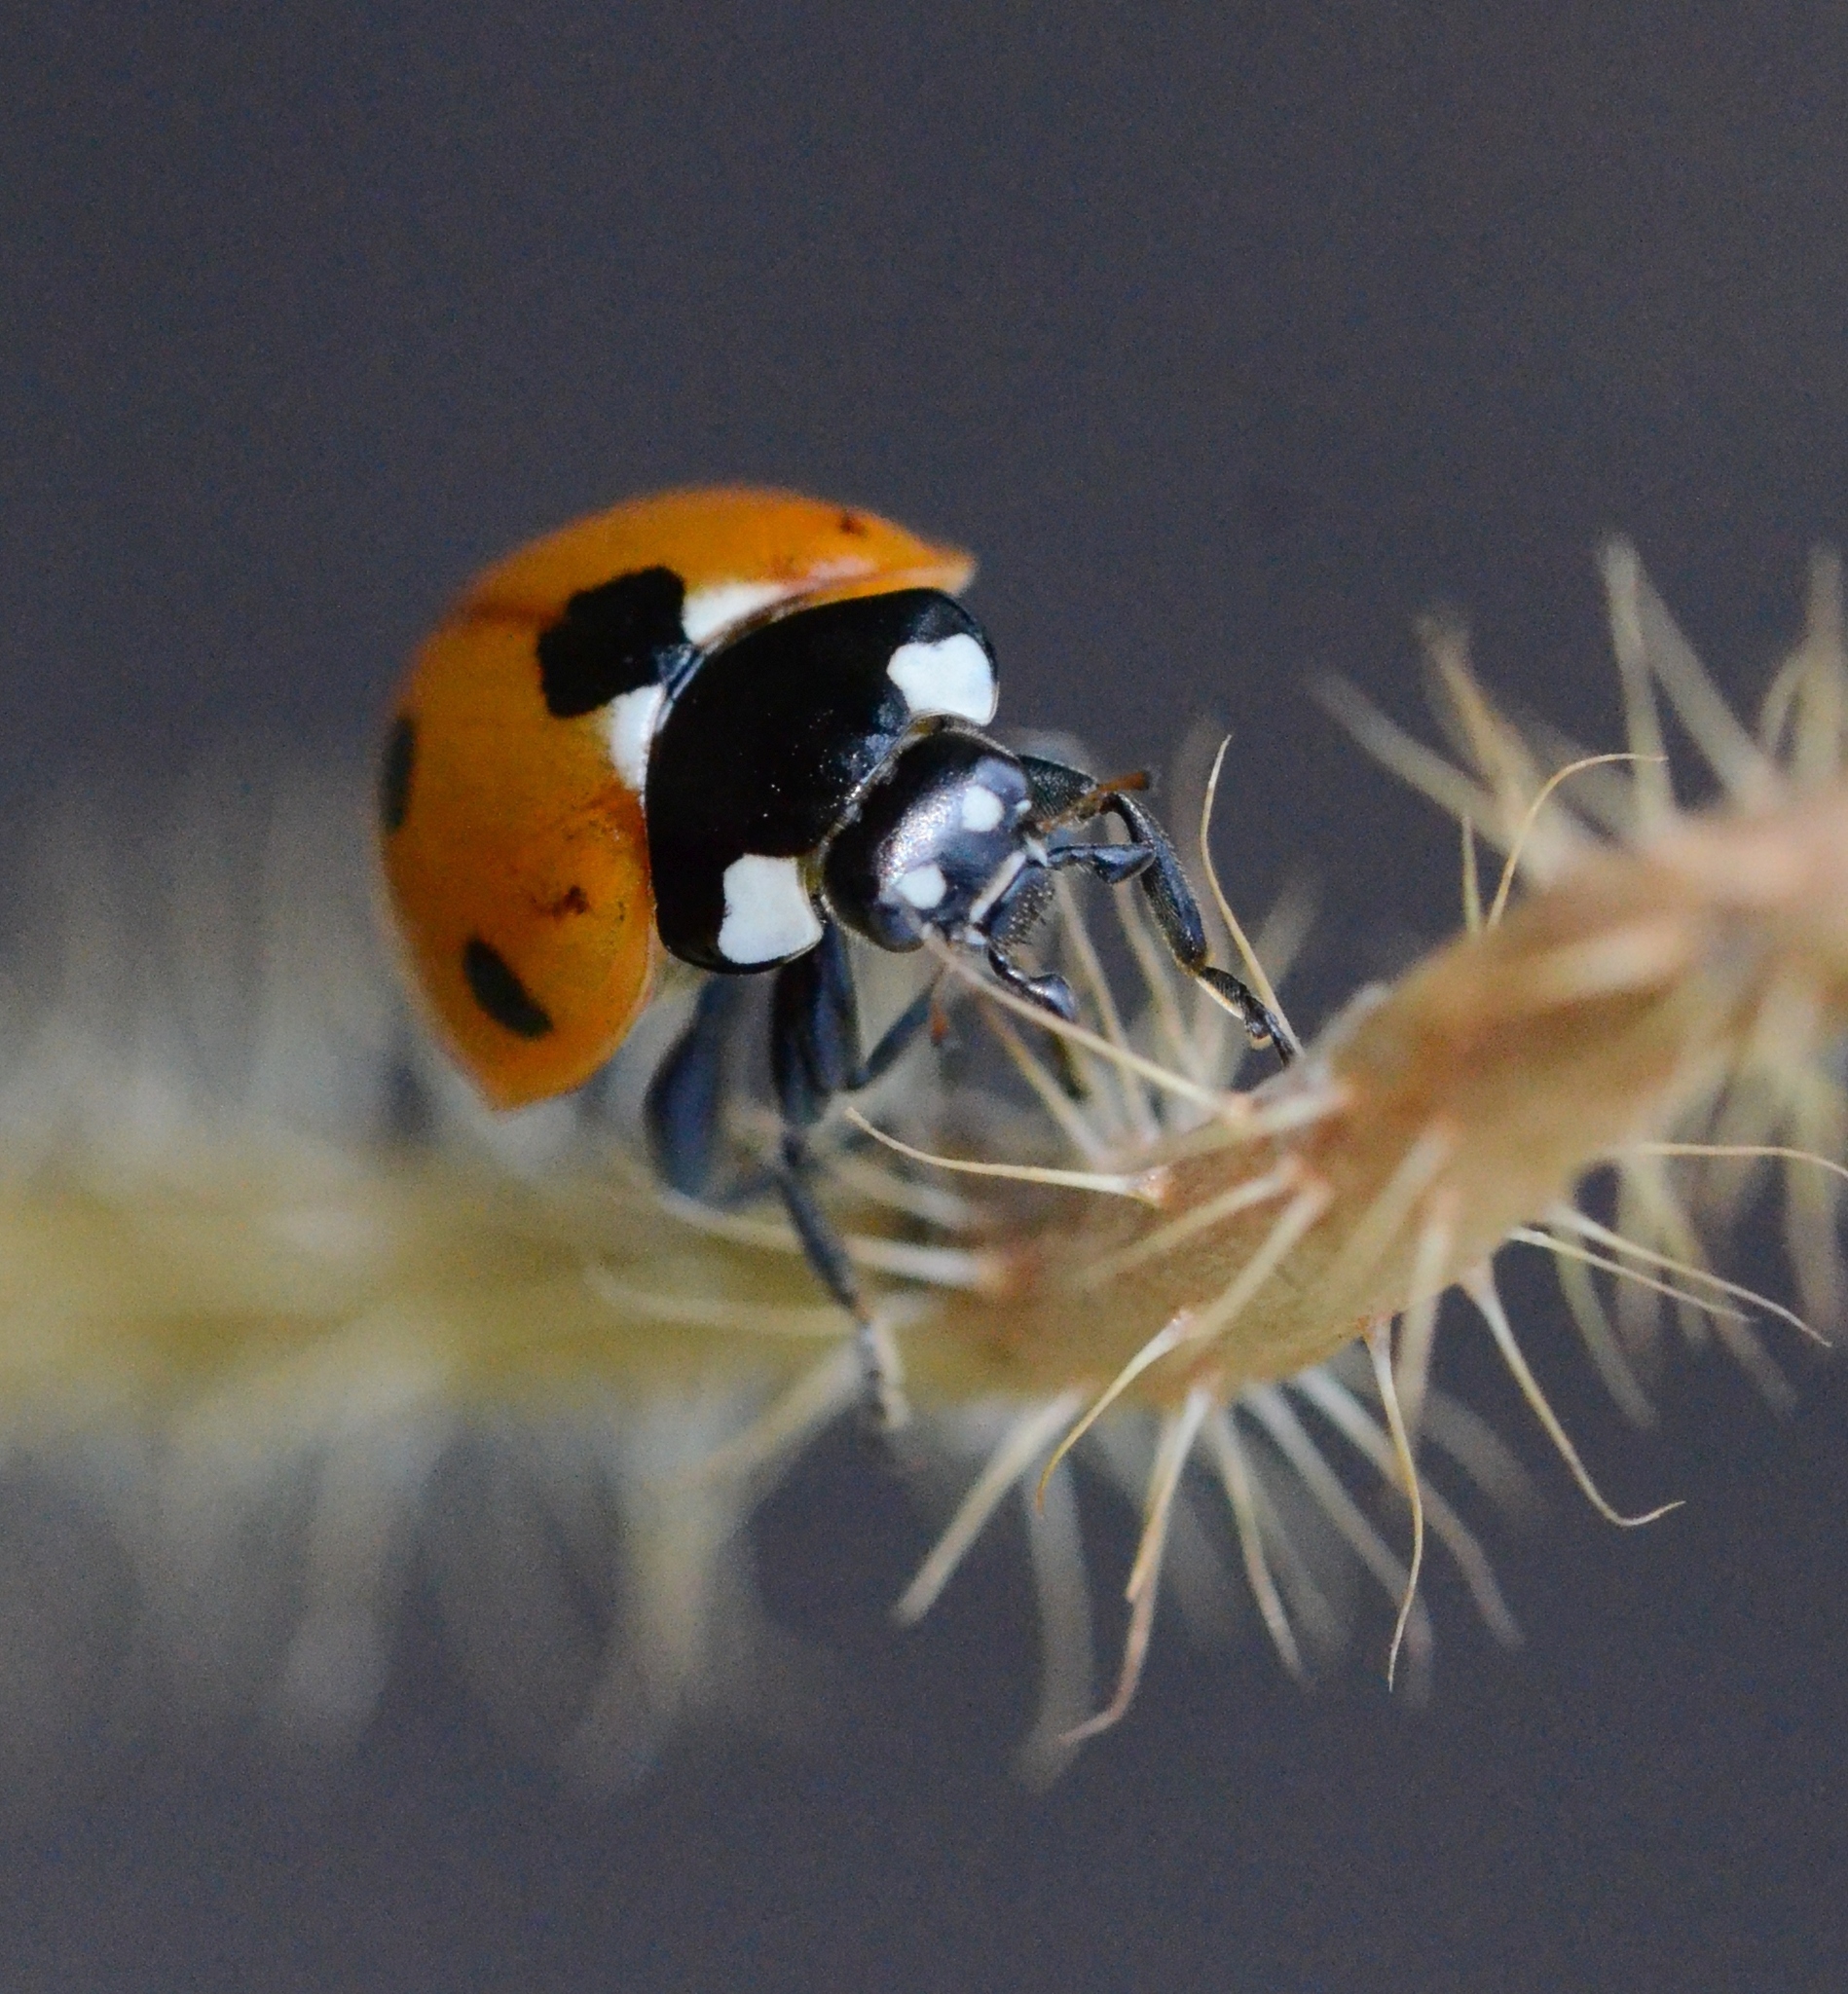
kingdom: Animalia
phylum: Arthropoda
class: Insecta
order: Coleoptera
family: Coccinellidae
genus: Coccinella
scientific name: Coccinella septempunctata
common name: Sevenspotted lady beetle
